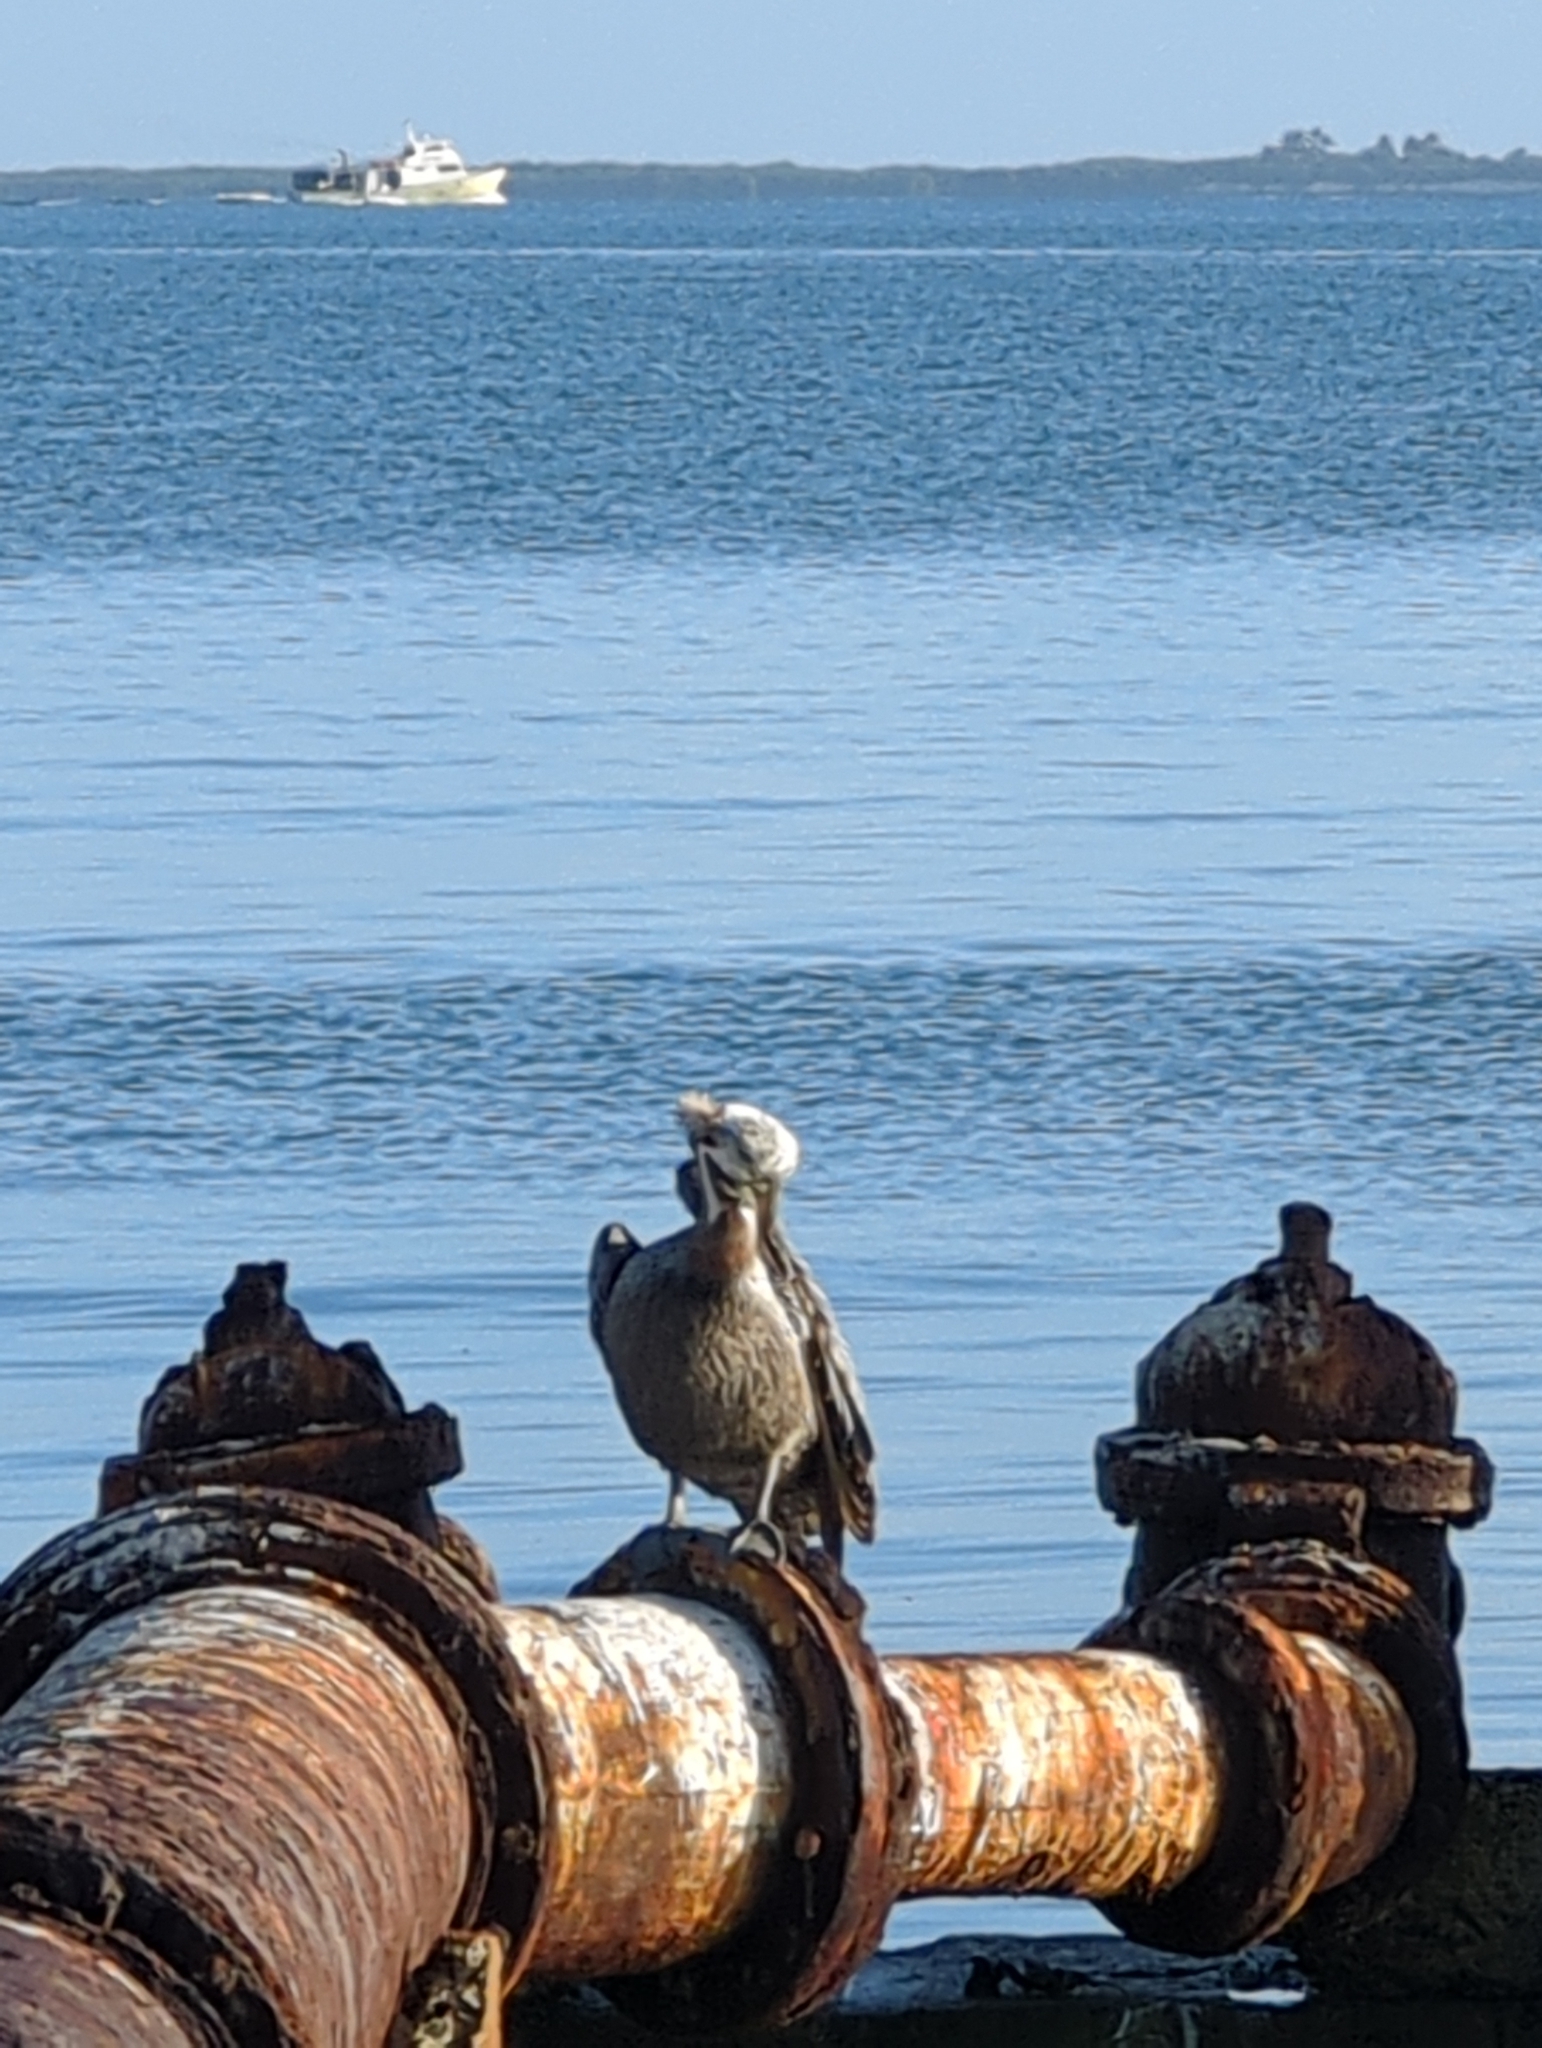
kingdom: Animalia
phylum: Chordata
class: Aves
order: Pelecaniformes
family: Pelecanidae
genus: Pelecanus
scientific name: Pelecanus occidentalis
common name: Brown pelican
